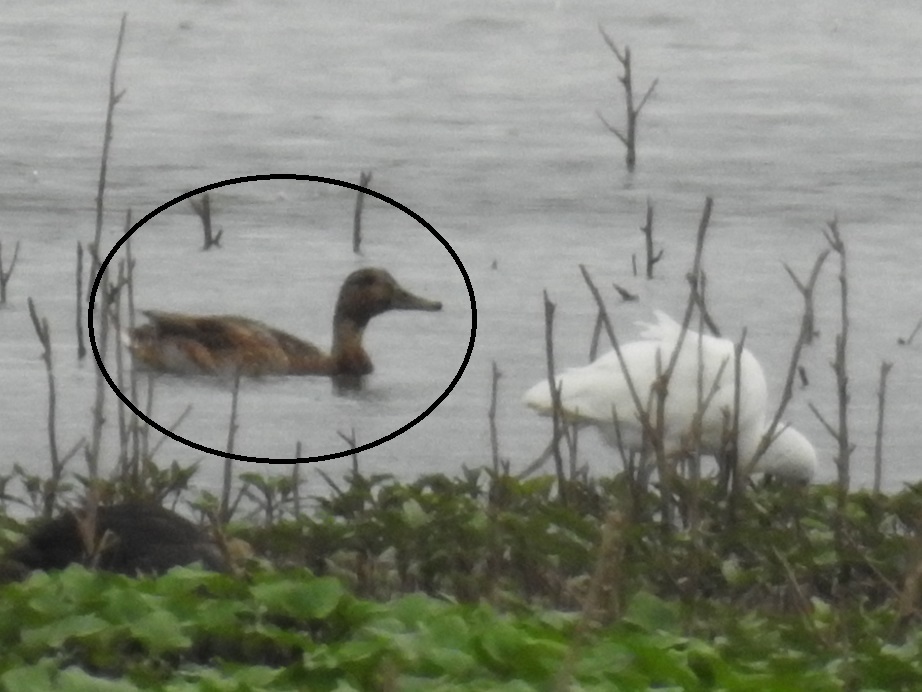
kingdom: Animalia
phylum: Chordata
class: Aves
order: Anseriformes
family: Anatidae
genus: Anas
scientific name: Anas platyrhynchos
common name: Mallard
